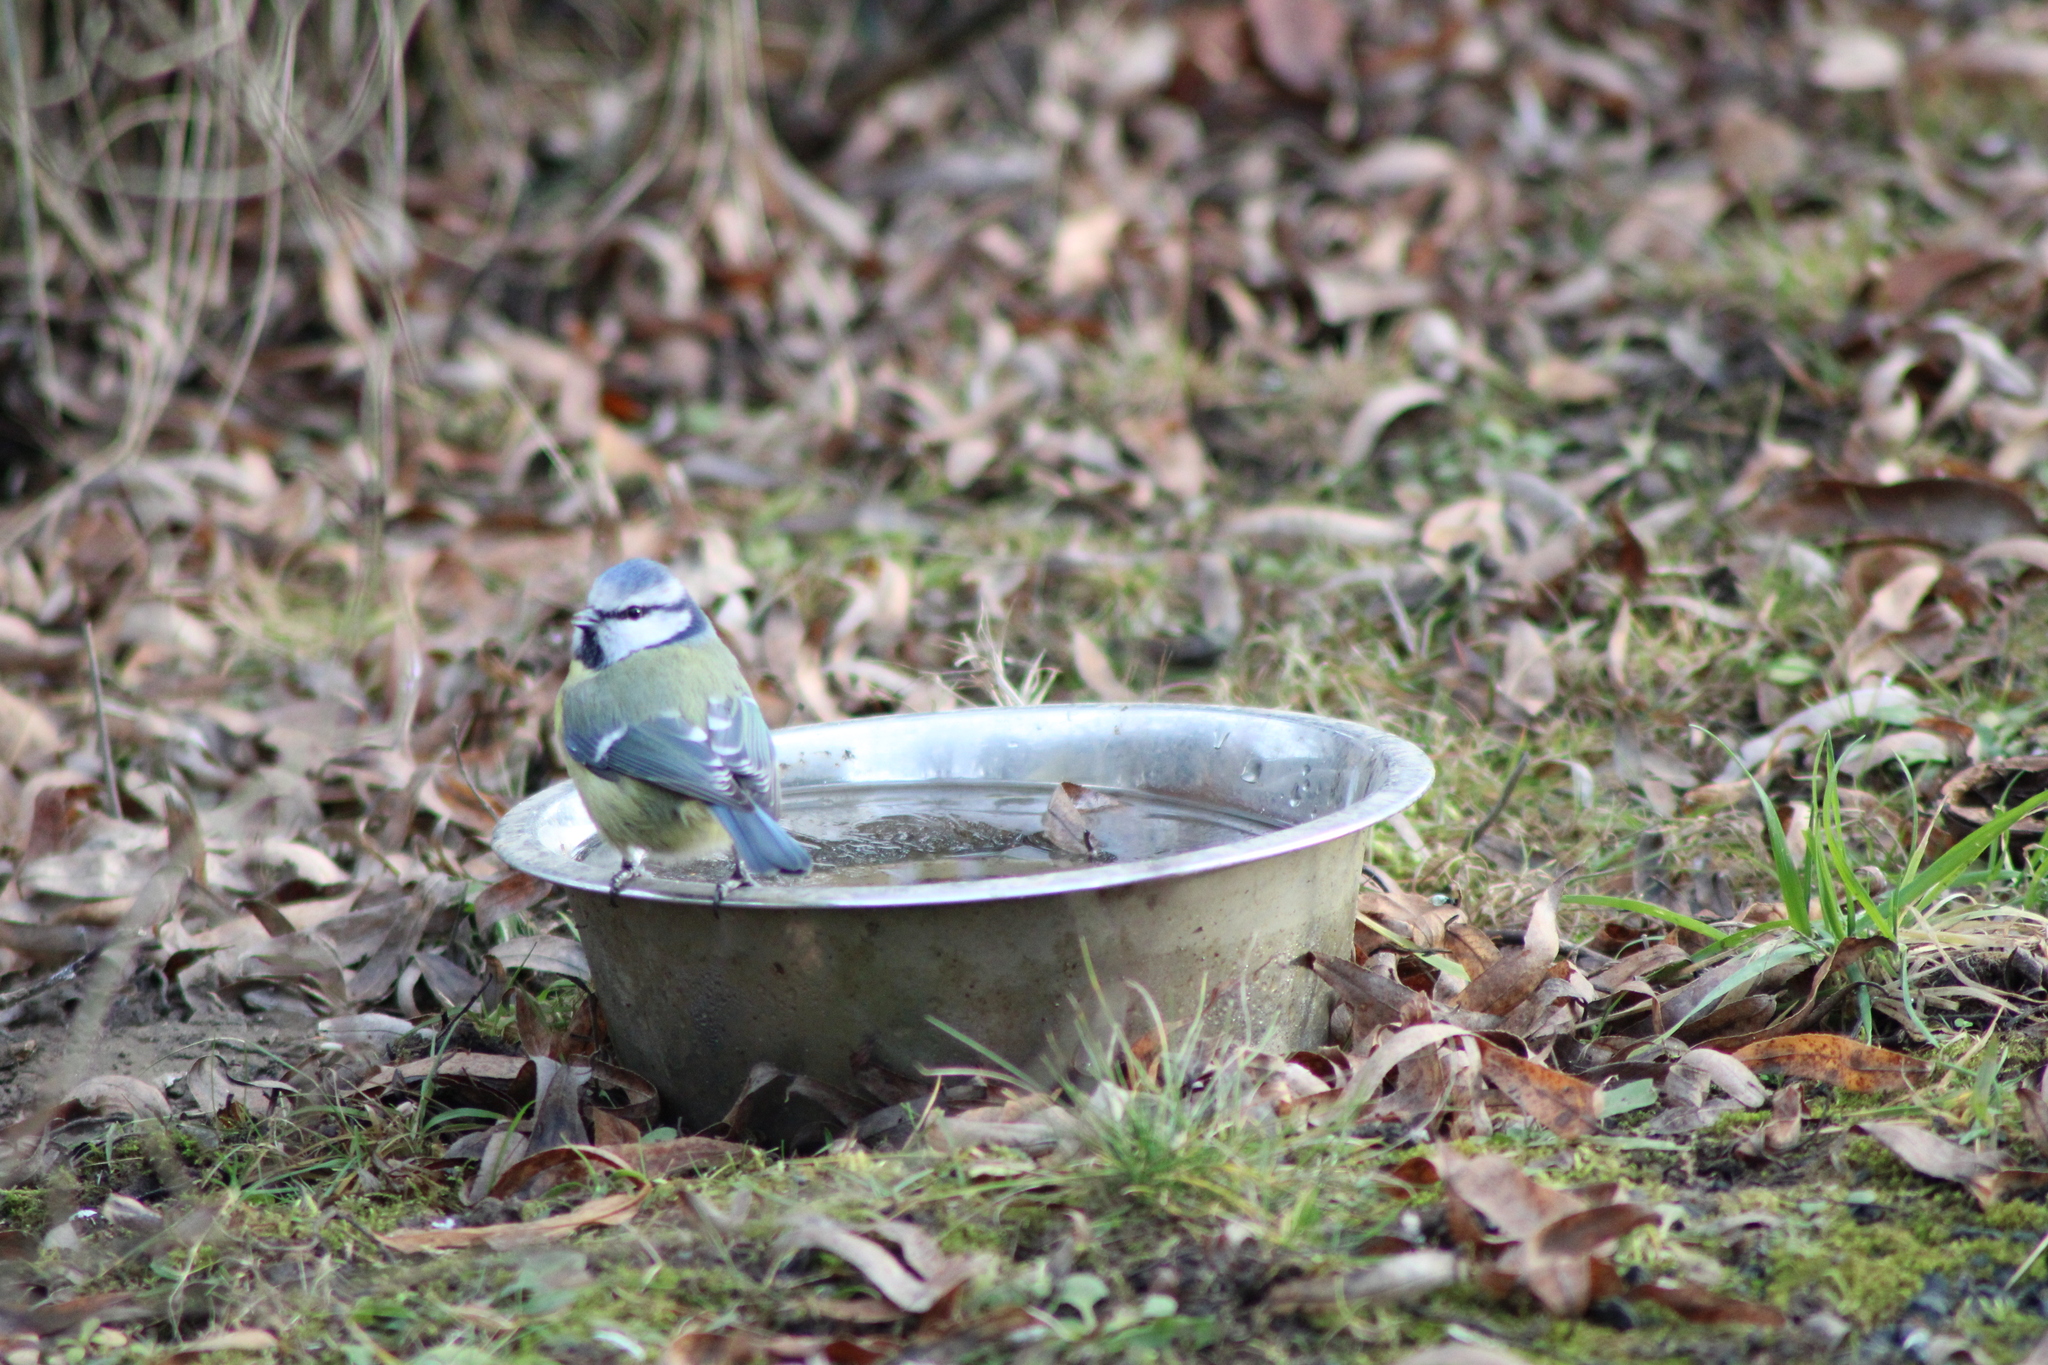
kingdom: Animalia
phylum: Chordata
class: Aves
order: Passeriformes
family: Paridae
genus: Cyanistes
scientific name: Cyanistes caeruleus
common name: Eurasian blue tit
